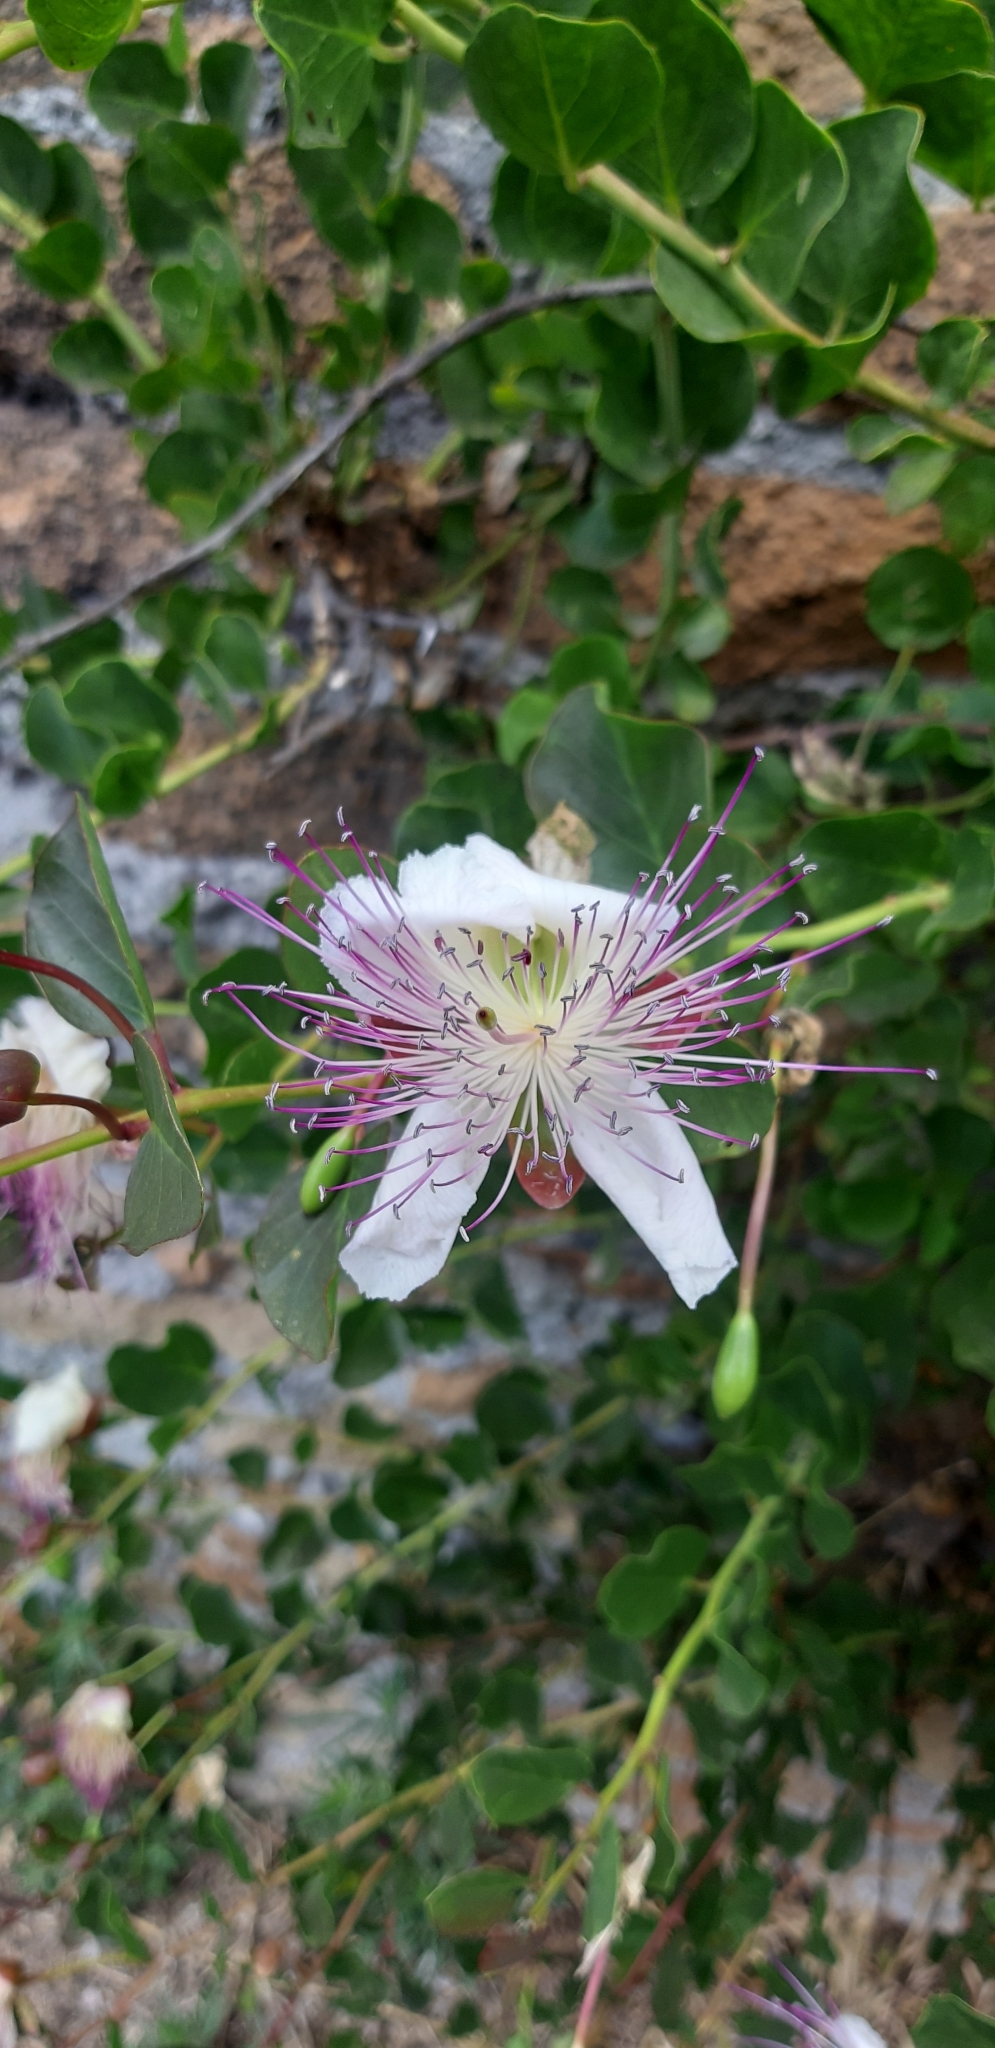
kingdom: Plantae
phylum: Tracheophyta
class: Magnoliopsida
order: Brassicales
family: Capparaceae
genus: Capparis
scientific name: Capparis spinosa
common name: Caper
